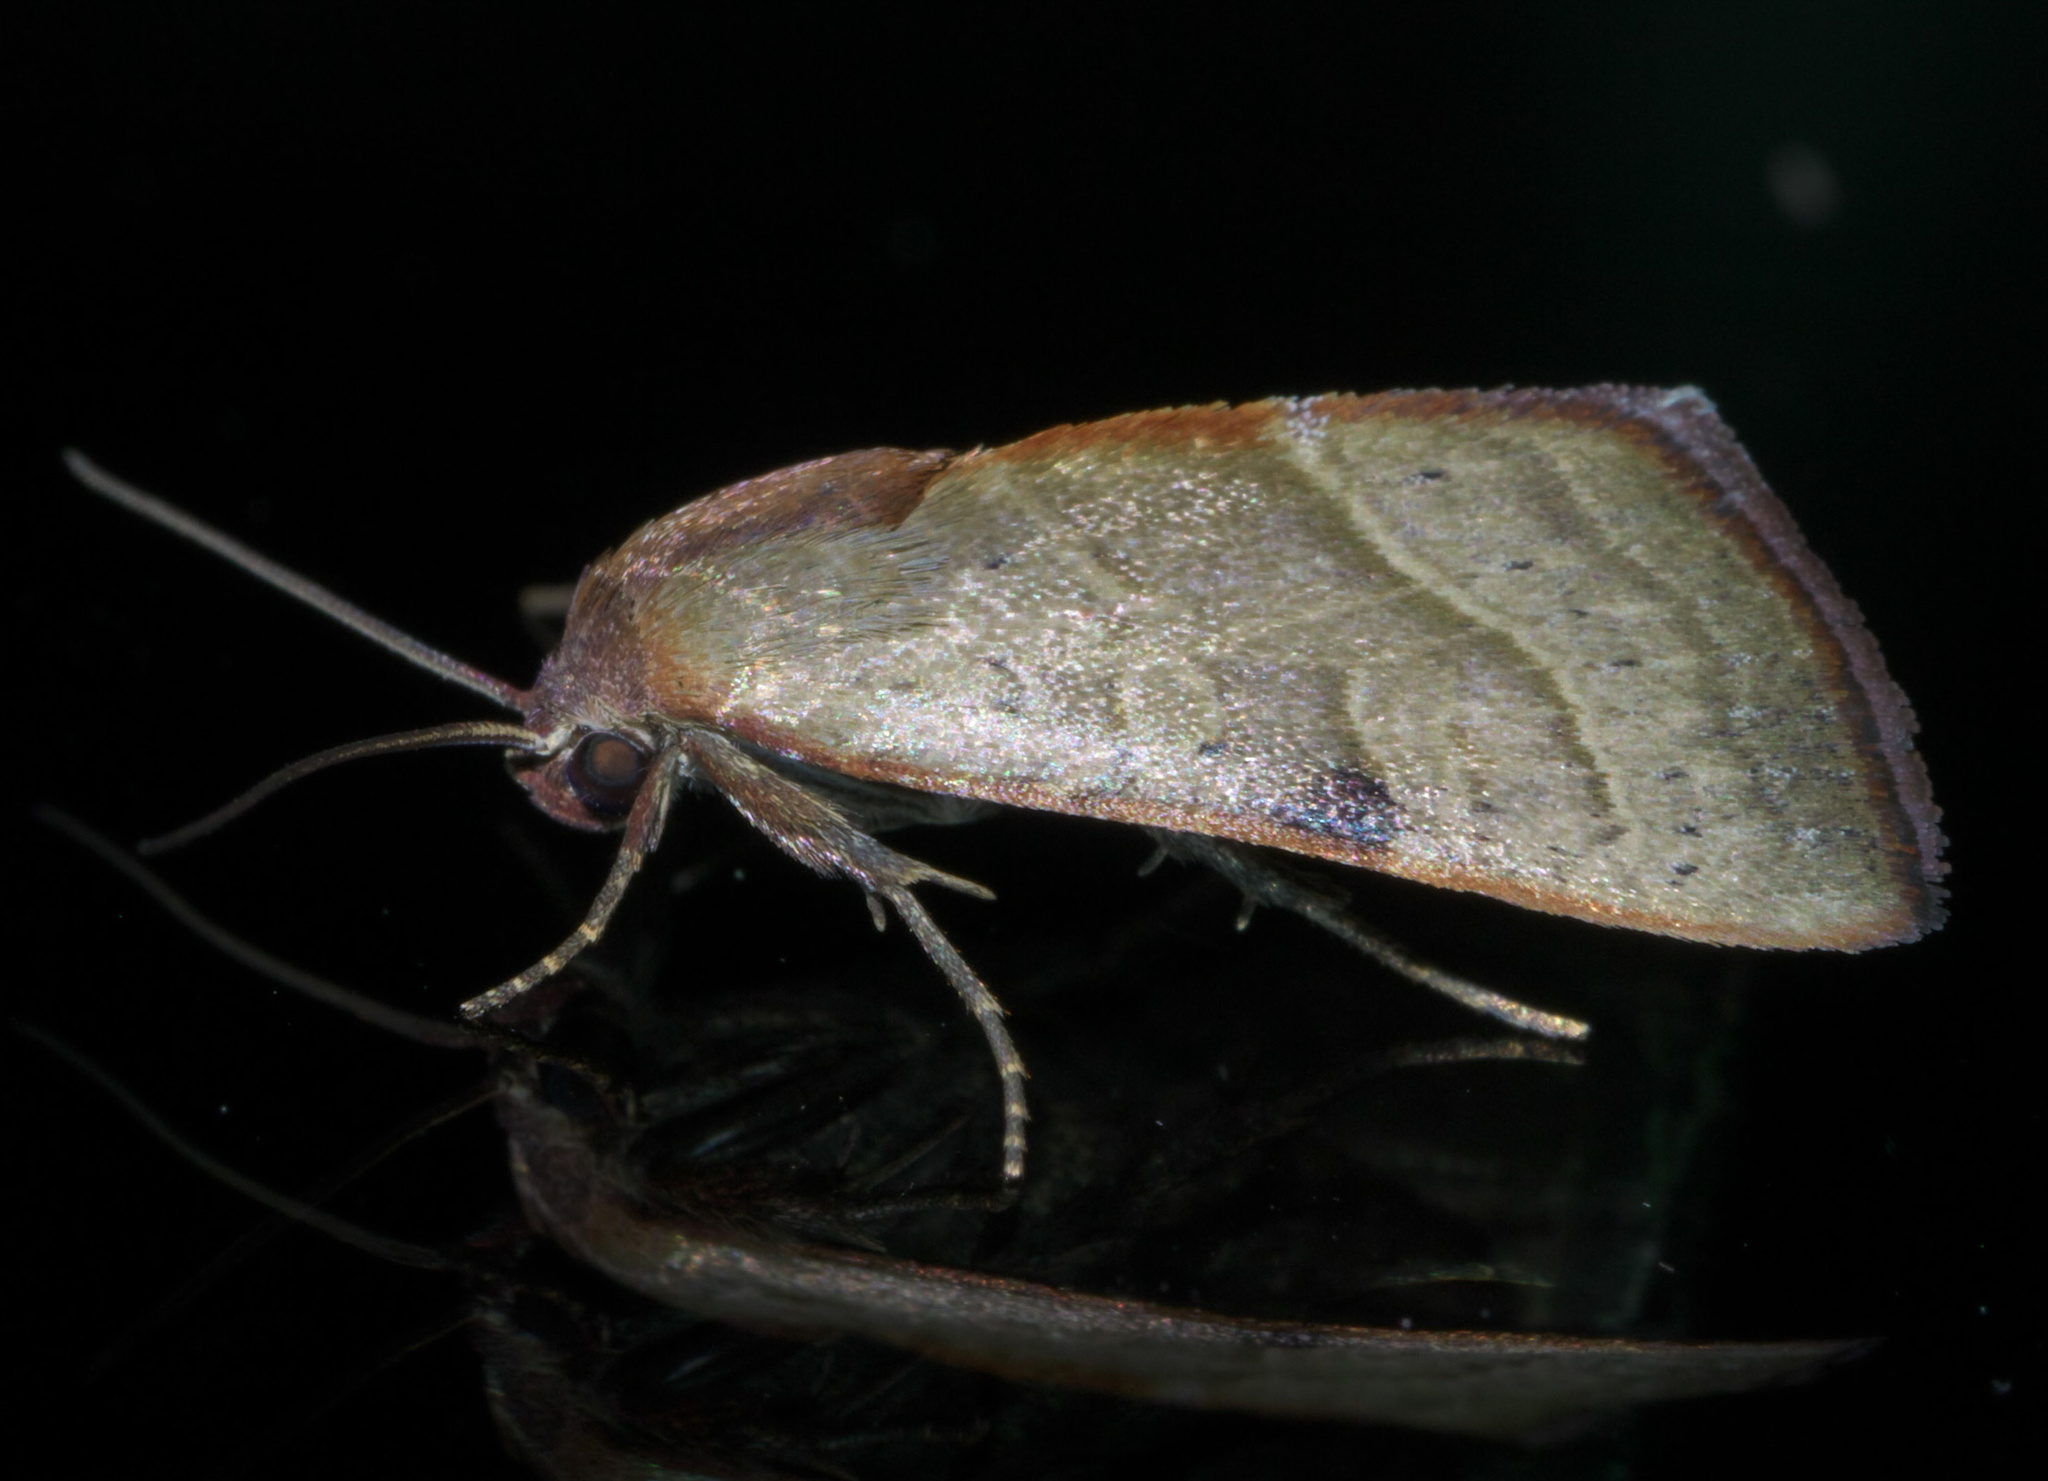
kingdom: Animalia
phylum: Arthropoda
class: Insecta
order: Lepidoptera
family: Noctuidae
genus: Galgula
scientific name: Galgula partita
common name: Wedgeling
